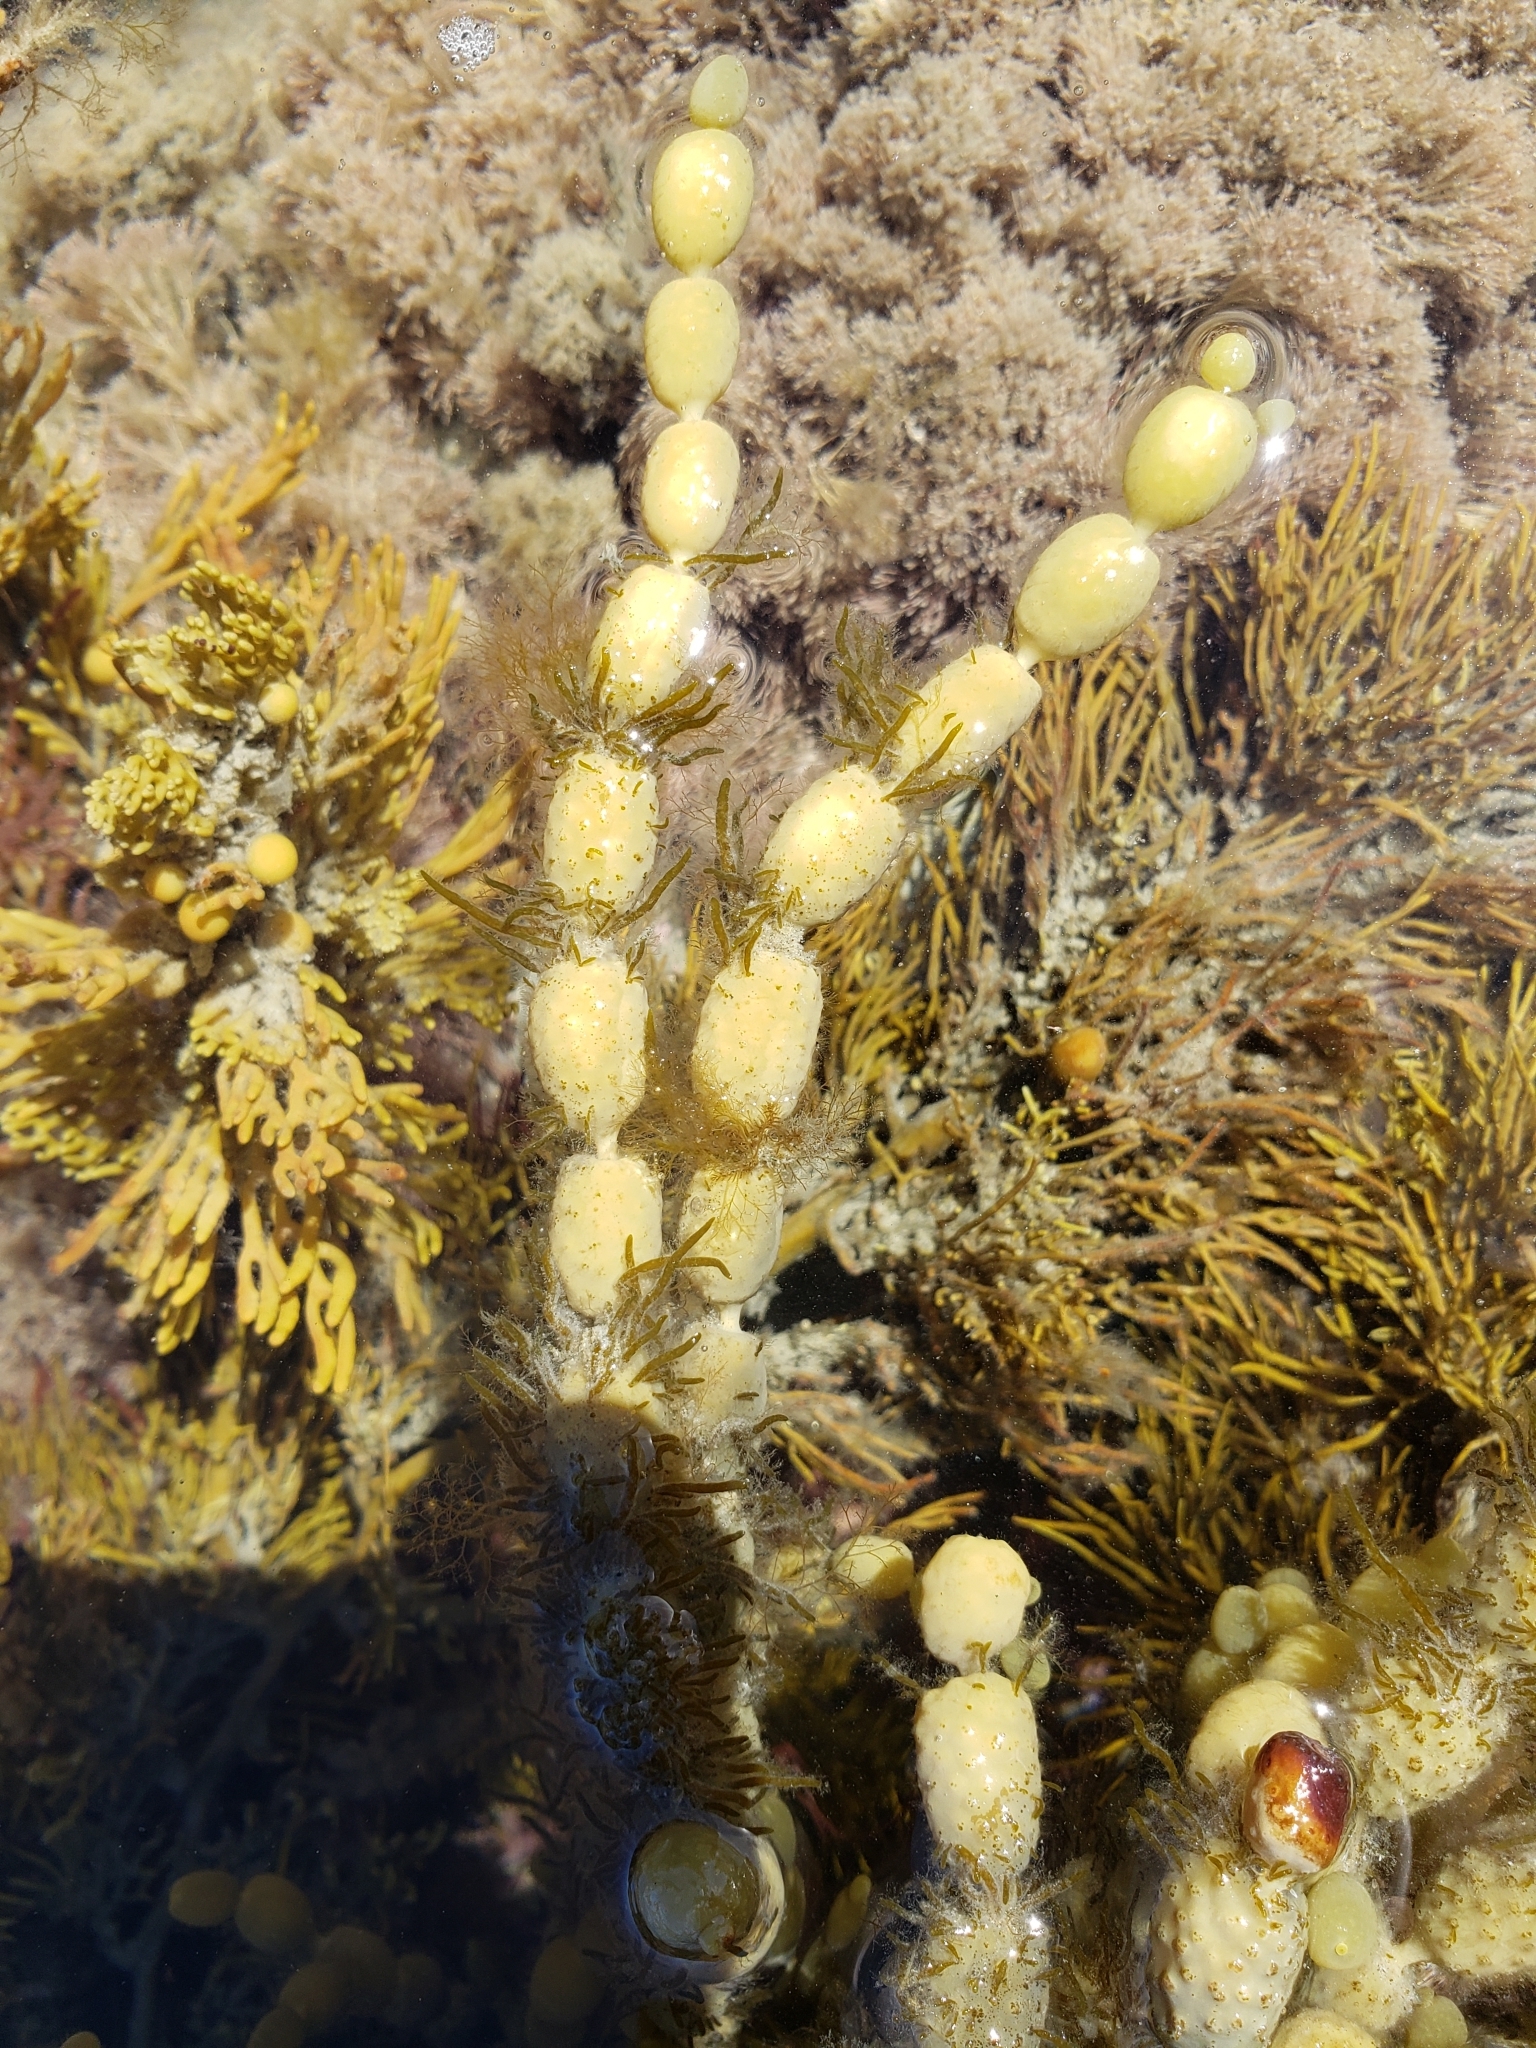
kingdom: Chromista
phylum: Ochrophyta
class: Phaeophyceae
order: Fucales
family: Notheiaceae
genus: Notheia
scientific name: Notheia anomala
